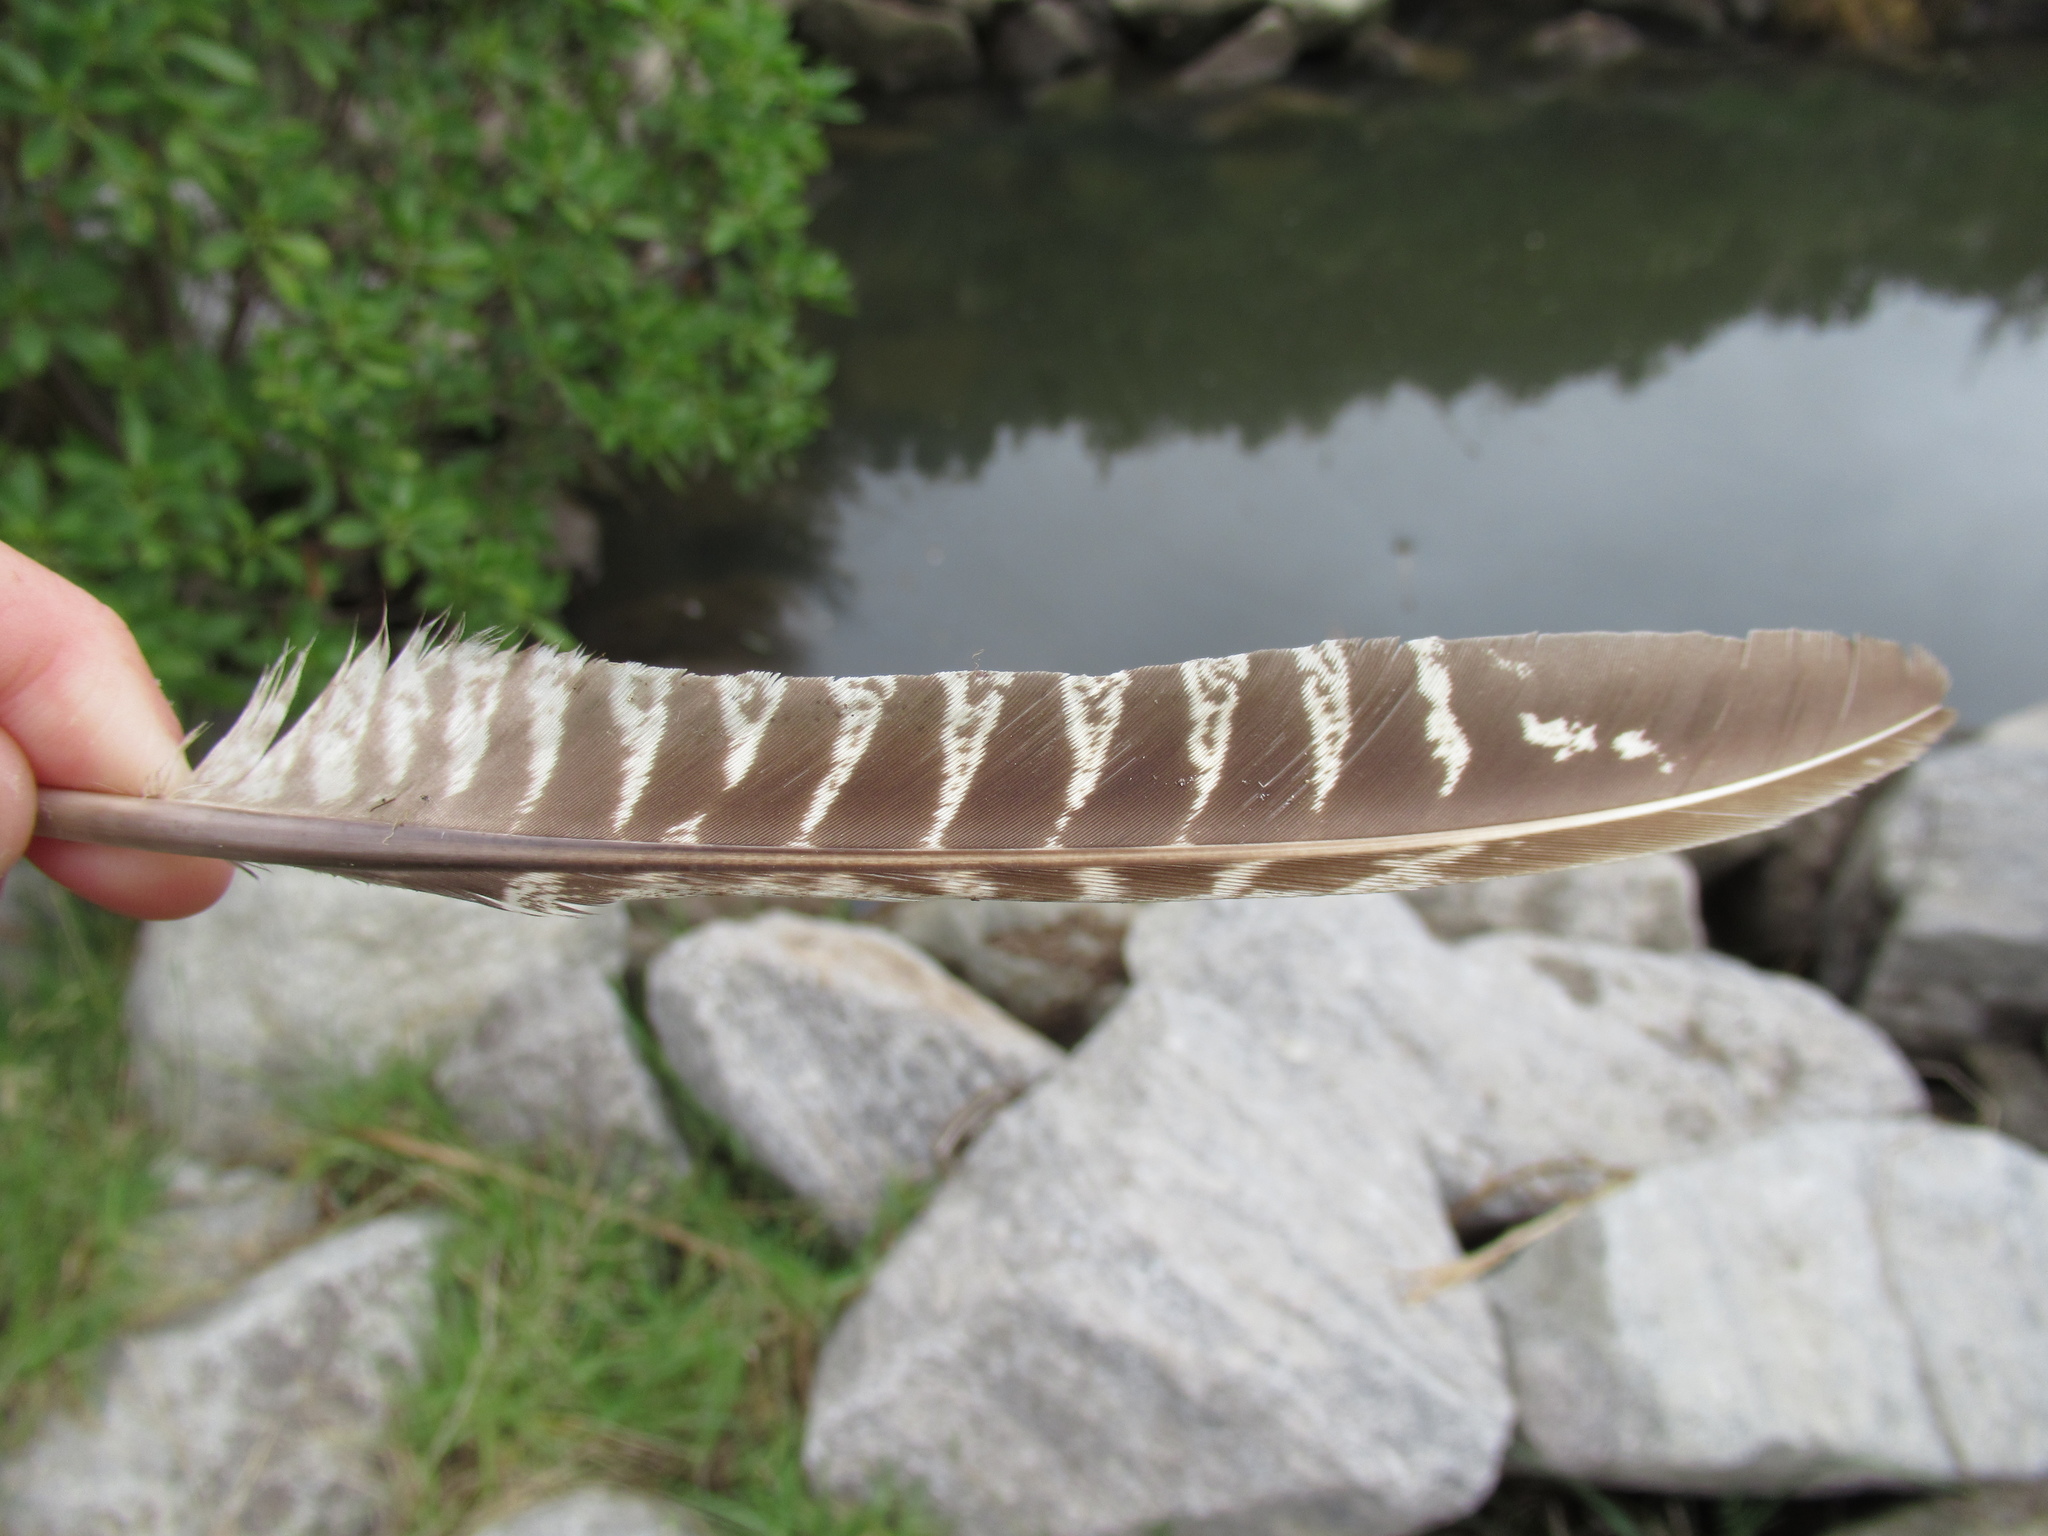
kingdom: Animalia
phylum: Chordata
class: Aves
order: Galliformes
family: Phasianidae
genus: Phasianus
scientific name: Phasianus colchicus
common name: Common pheasant
